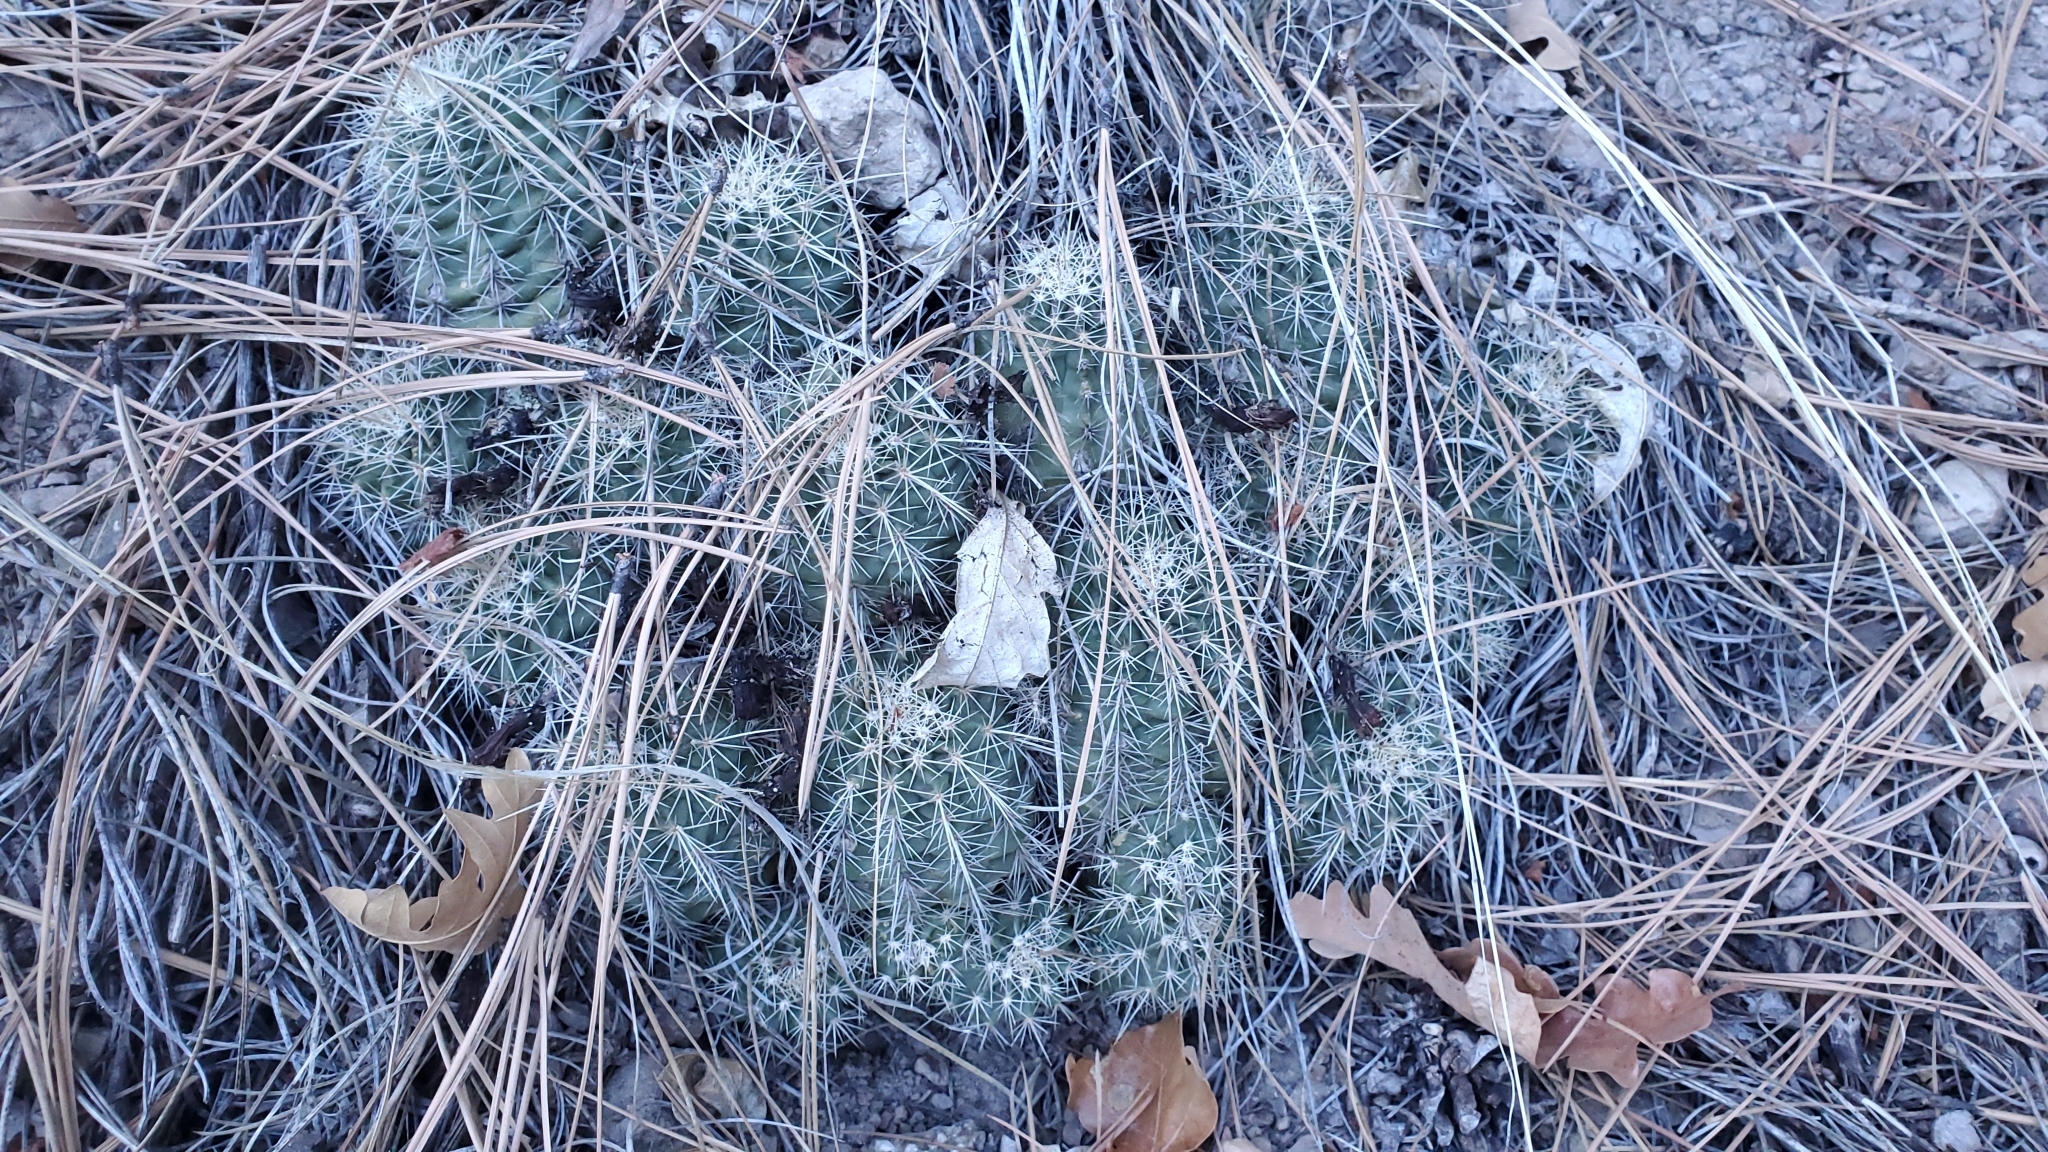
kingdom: Plantae
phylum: Tracheophyta
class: Magnoliopsida
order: Caryophyllales
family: Cactaceae
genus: Echinocereus
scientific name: Echinocereus coccineus
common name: Scarlet hedgehog cactus
